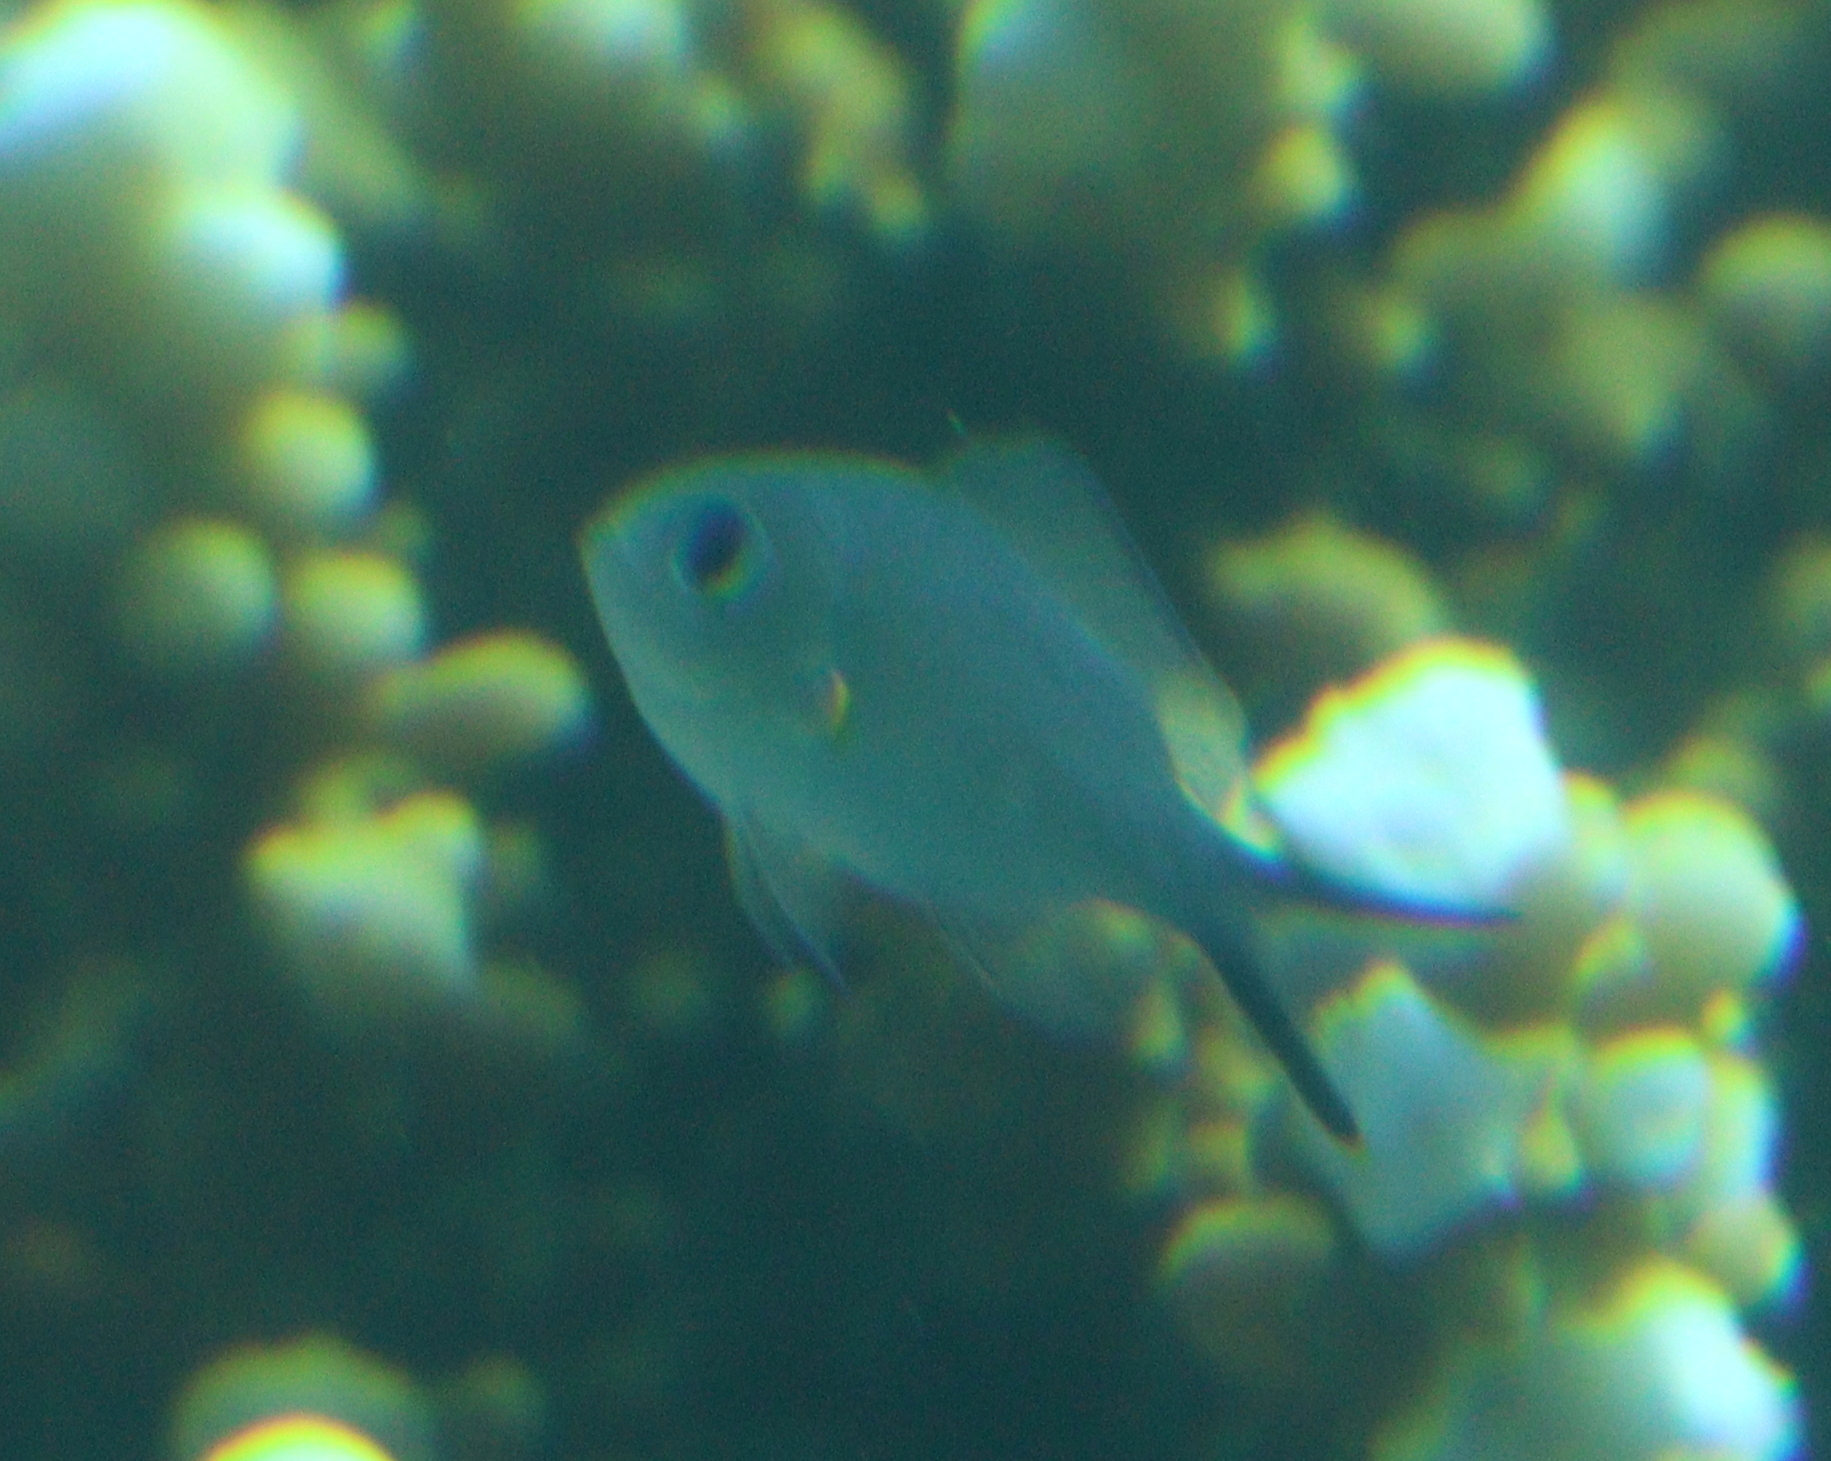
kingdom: Animalia
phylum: Chordata
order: Perciformes
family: Pomacentridae
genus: Chromis
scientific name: Chromis flavaxilla
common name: Arabian chromis
